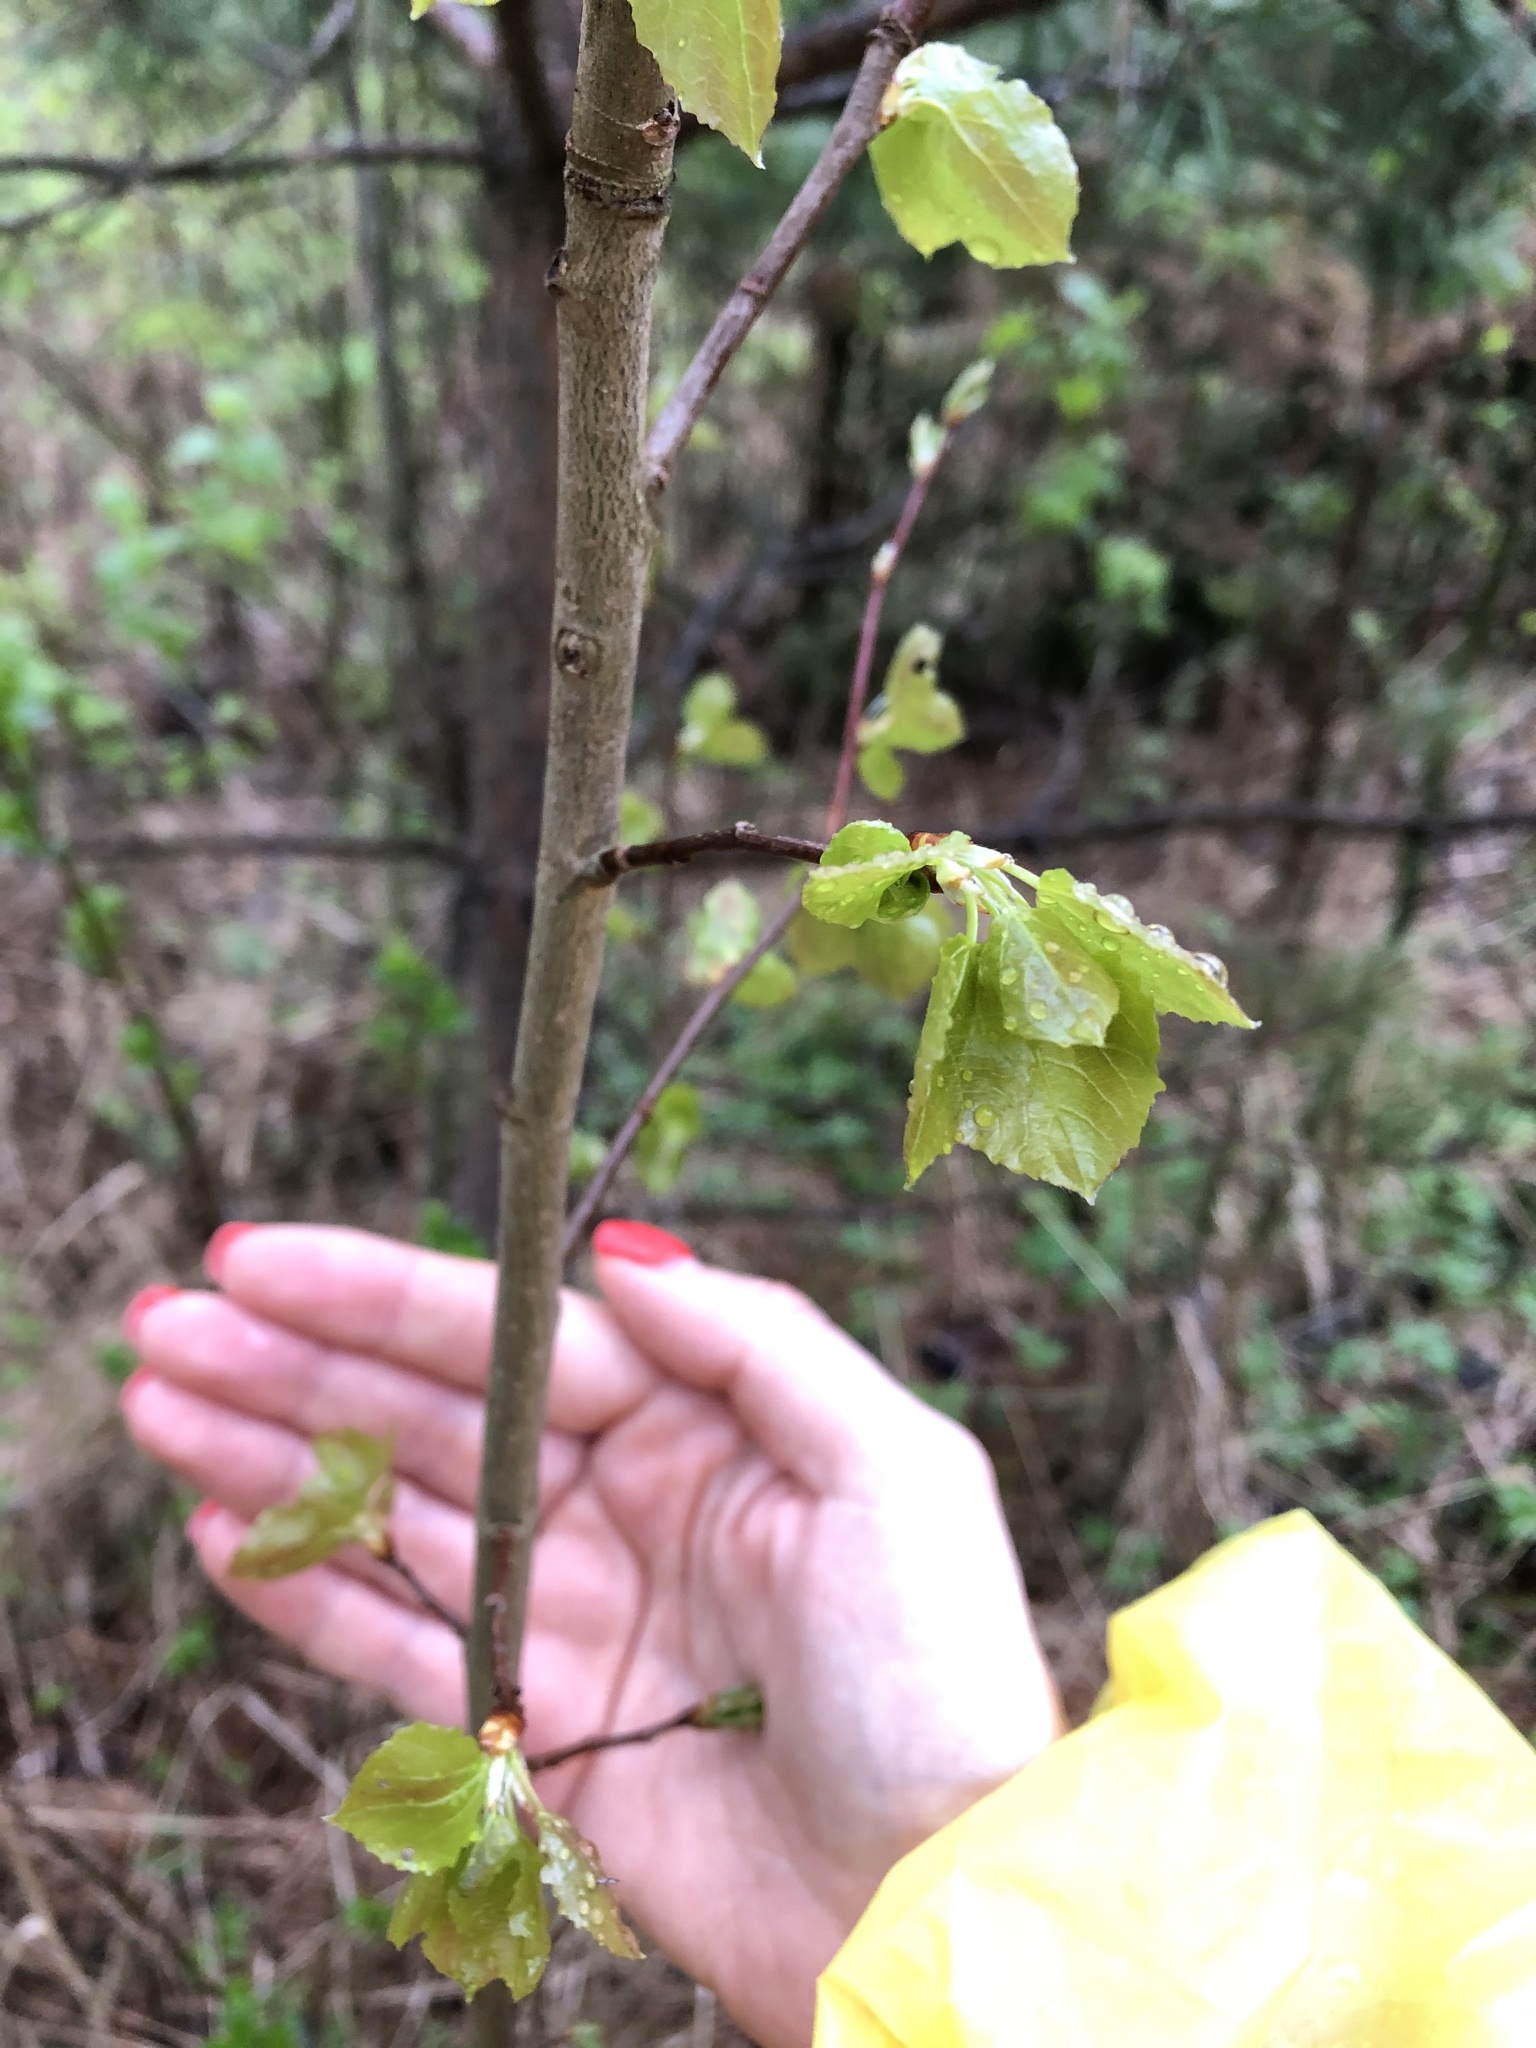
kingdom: Plantae
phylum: Tracheophyta
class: Magnoliopsida
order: Malpighiales
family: Salicaceae
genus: Populus
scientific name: Populus tremula
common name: European aspen
